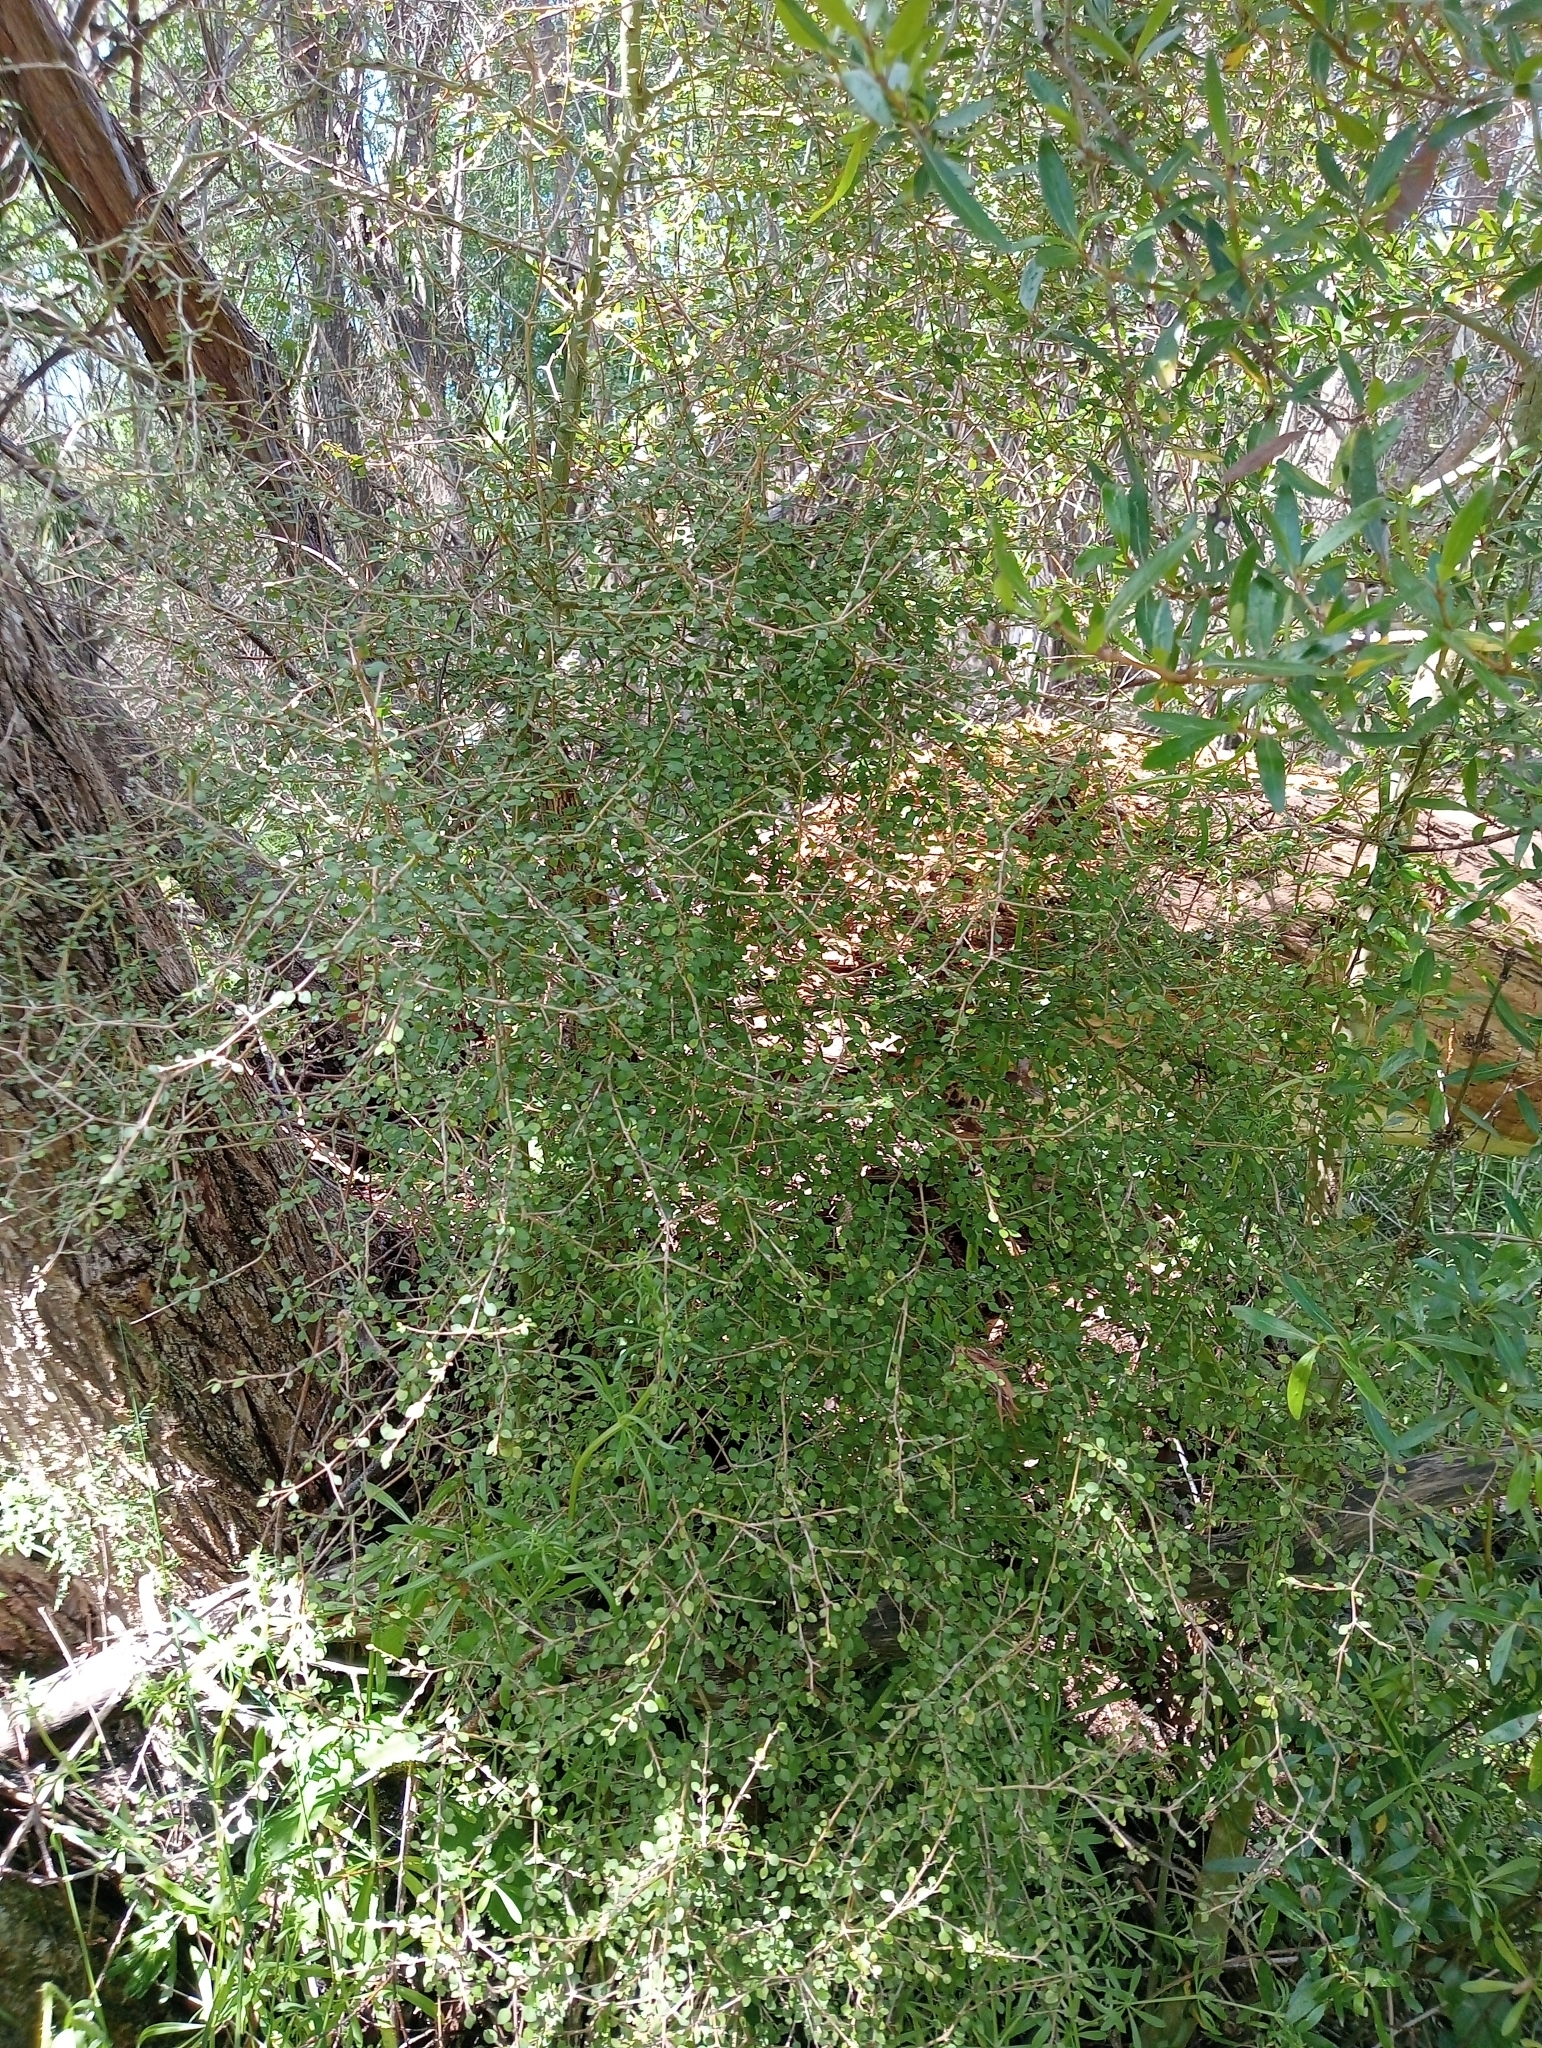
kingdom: Plantae
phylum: Tracheophyta
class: Magnoliopsida
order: Gentianales
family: Rubiaceae
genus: Coprosma
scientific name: Coprosma virescens
